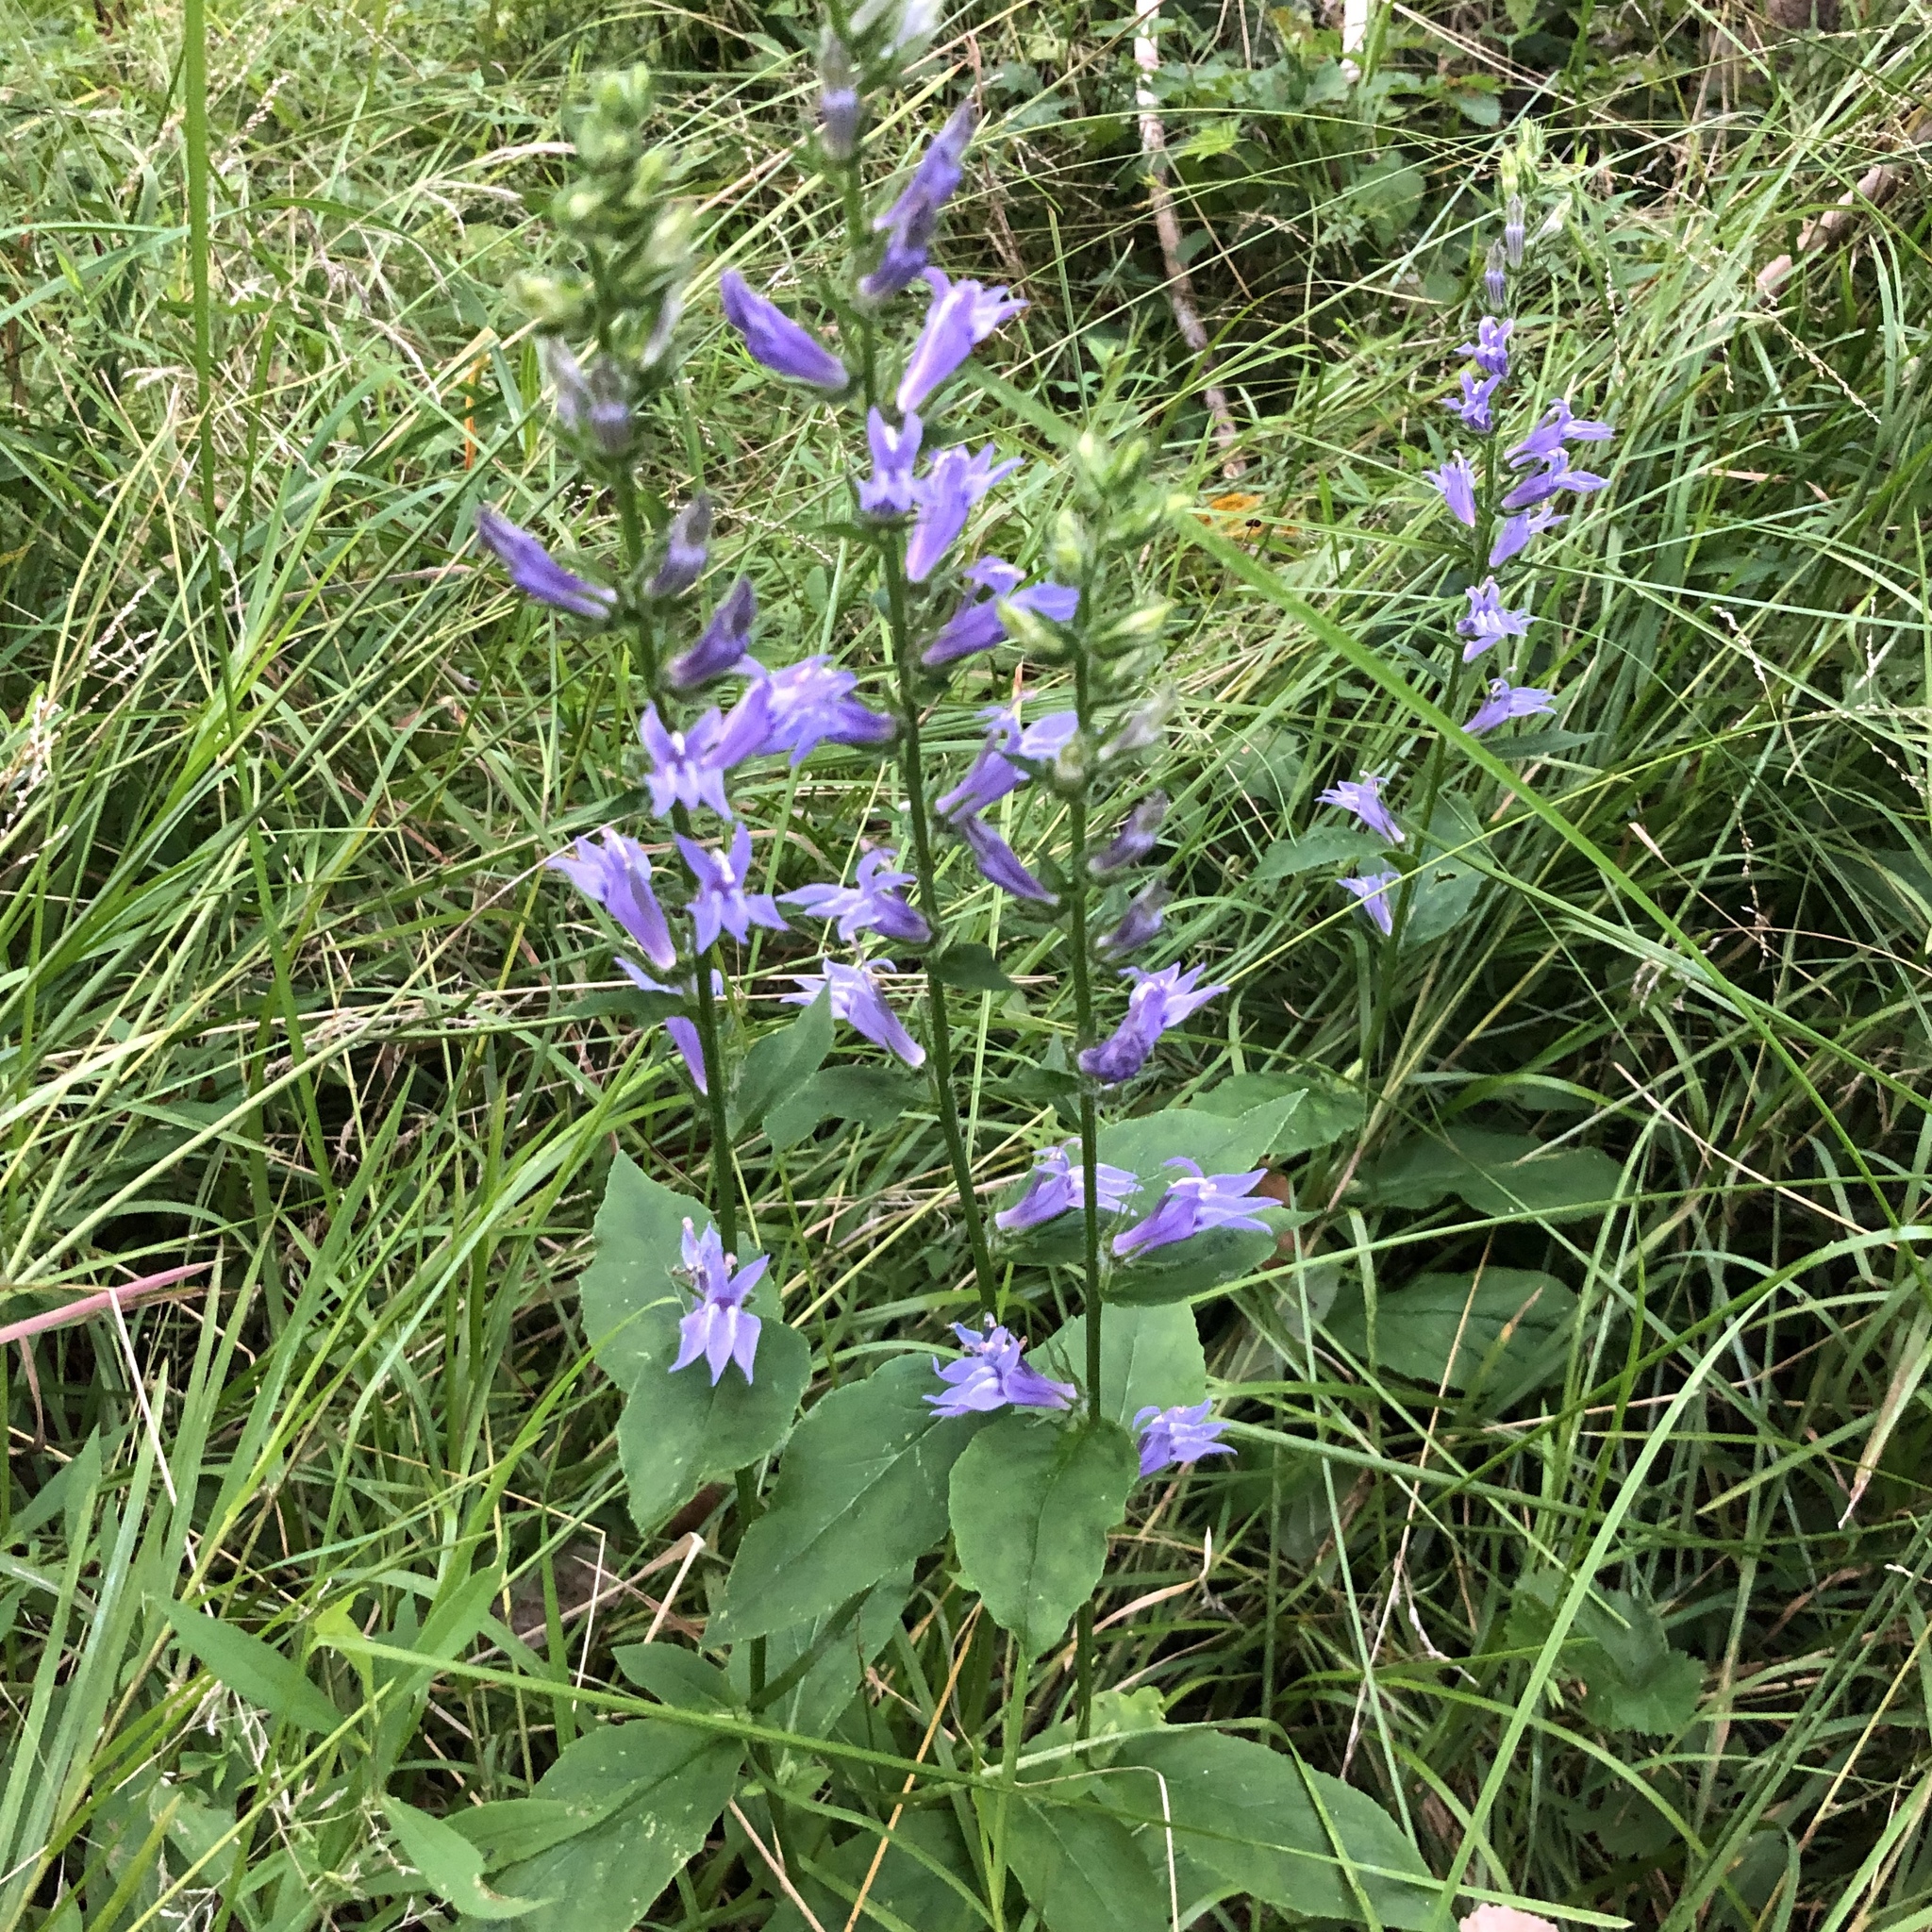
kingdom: Plantae
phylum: Tracheophyta
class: Magnoliopsida
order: Asterales
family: Campanulaceae
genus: Lobelia
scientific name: Lobelia siphilitica
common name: Great lobelia
